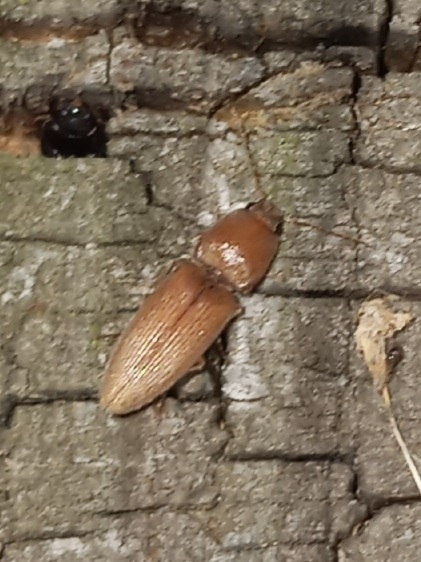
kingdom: Animalia
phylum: Arthropoda
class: Insecta
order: Coleoptera
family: Elateridae
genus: Monocrepidius
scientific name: Monocrepidius scissus
